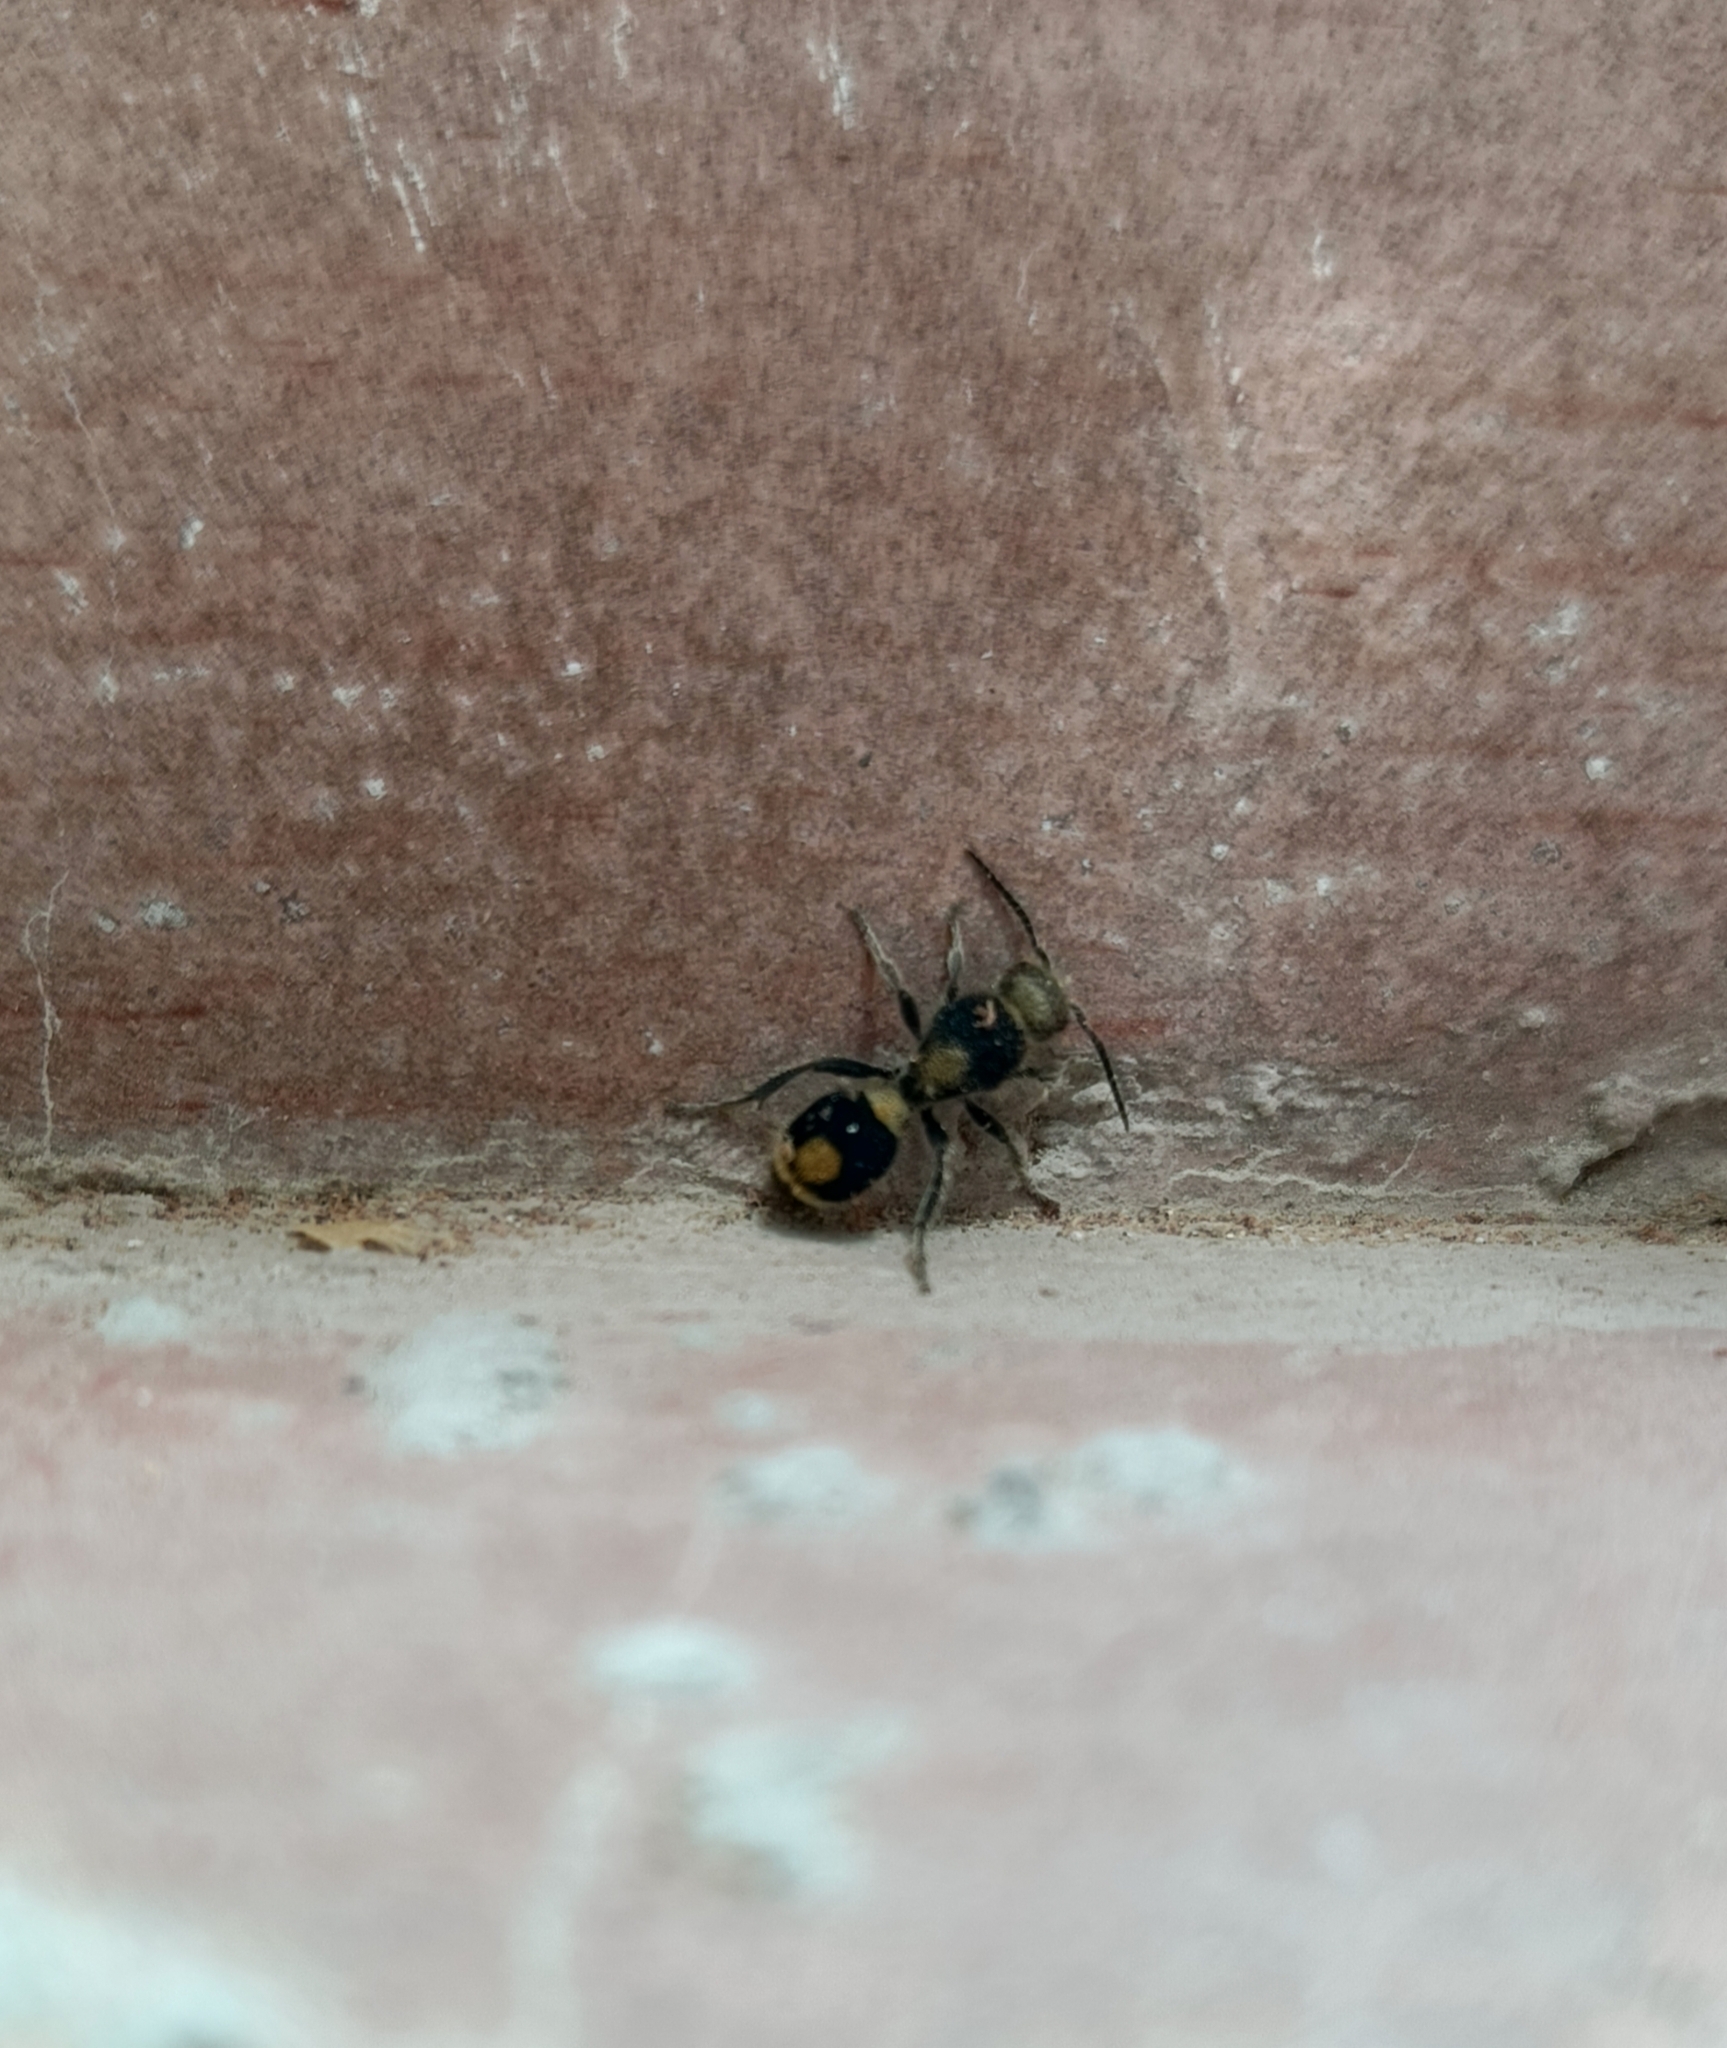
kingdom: Animalia
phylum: Arthropoda
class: Insecta
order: Hymenoptera
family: Mutillidae
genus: Sphaeropthalma
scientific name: Sphaeropthalma
